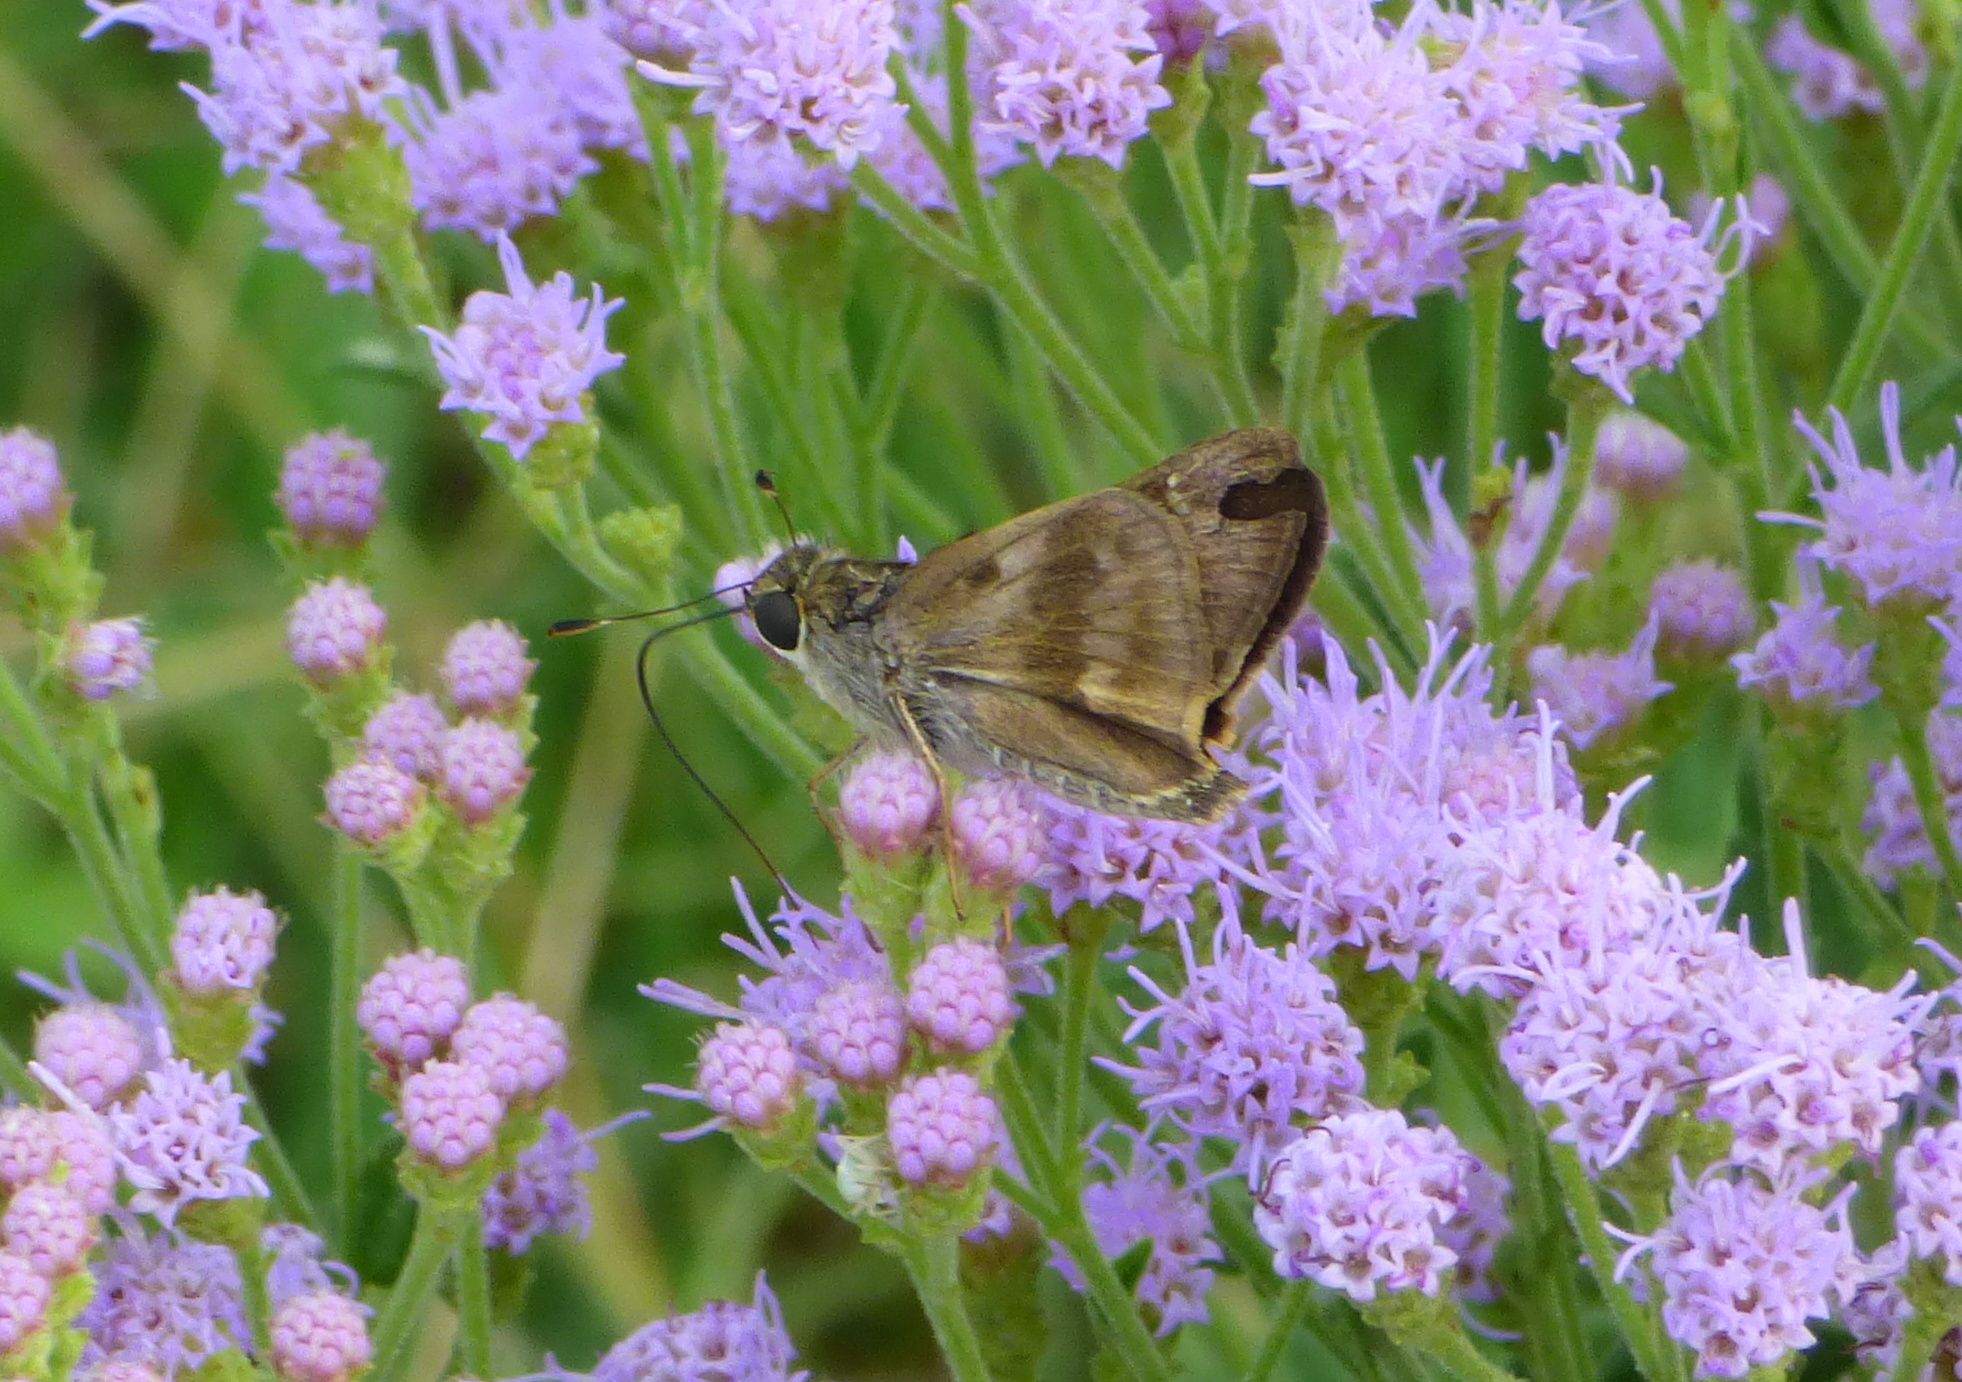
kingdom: Animalia
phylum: Arthropoda
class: Insecta
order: Lepidoptera
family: Hesperiidae
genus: Nyctelius
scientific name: Nyctelius nyctelius
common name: Violet-banded skipper
